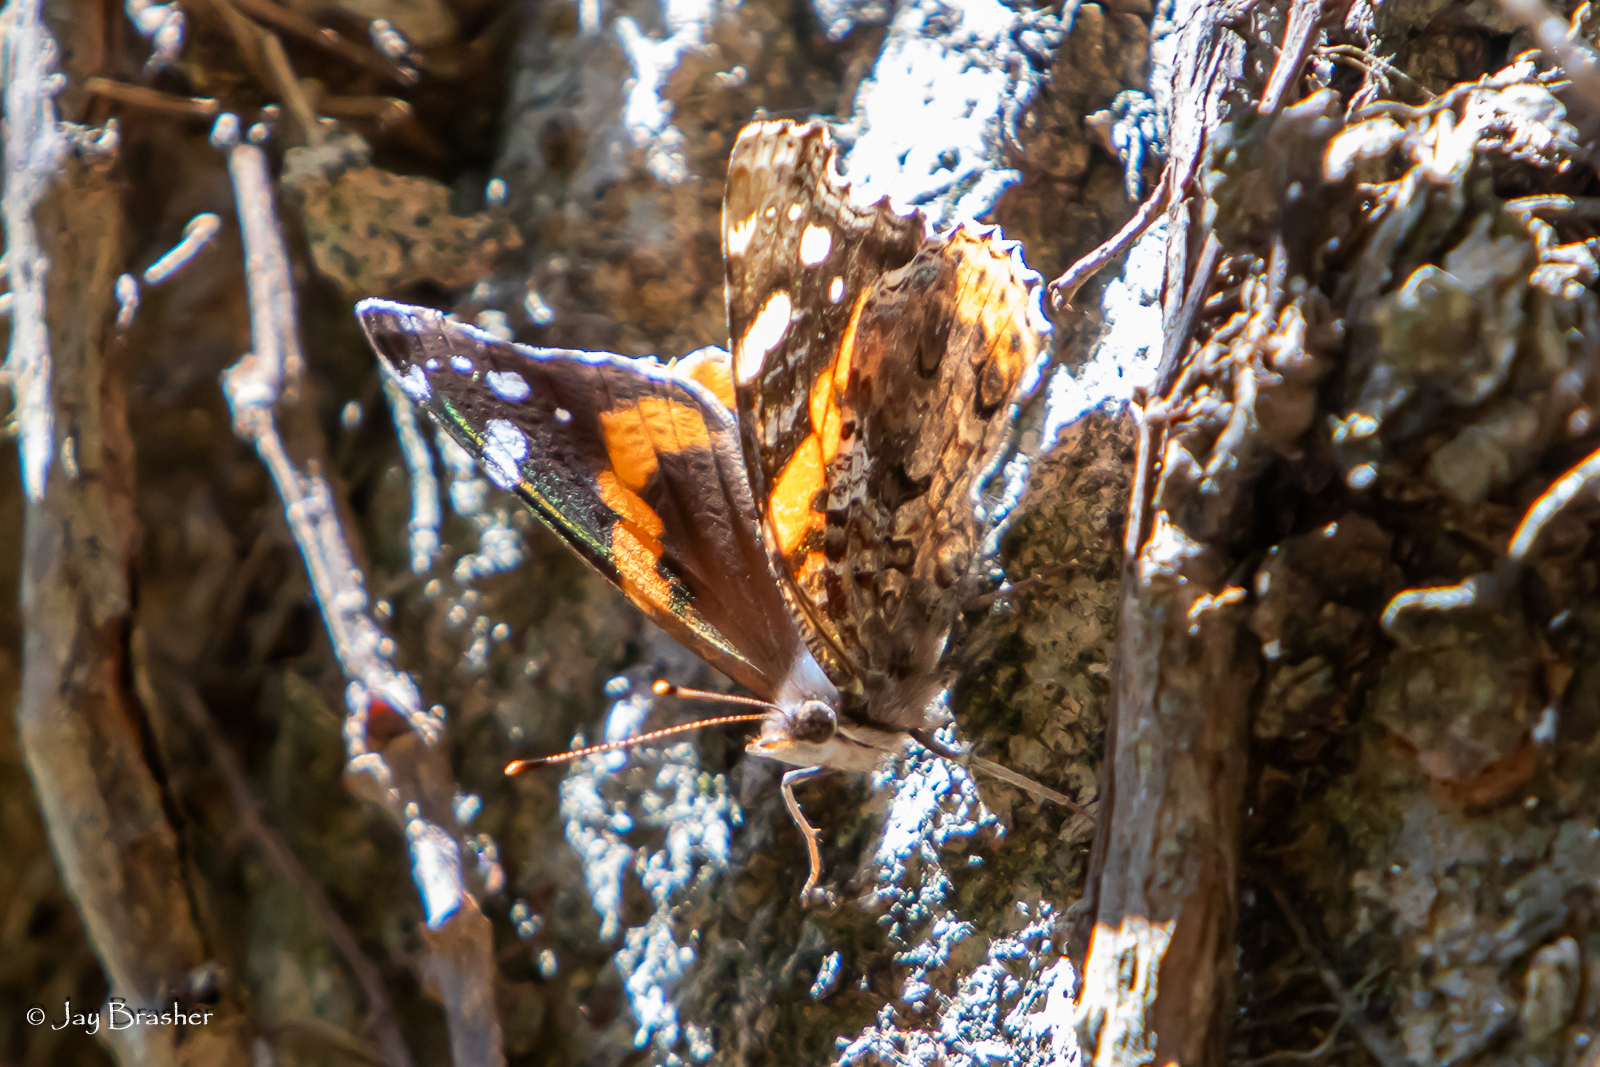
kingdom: Animalia
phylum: Arthropoda
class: Insecta
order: Lepidoptera
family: Nymphalidae
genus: Vanessa
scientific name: Vanessa atalanta
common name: Red admiral
